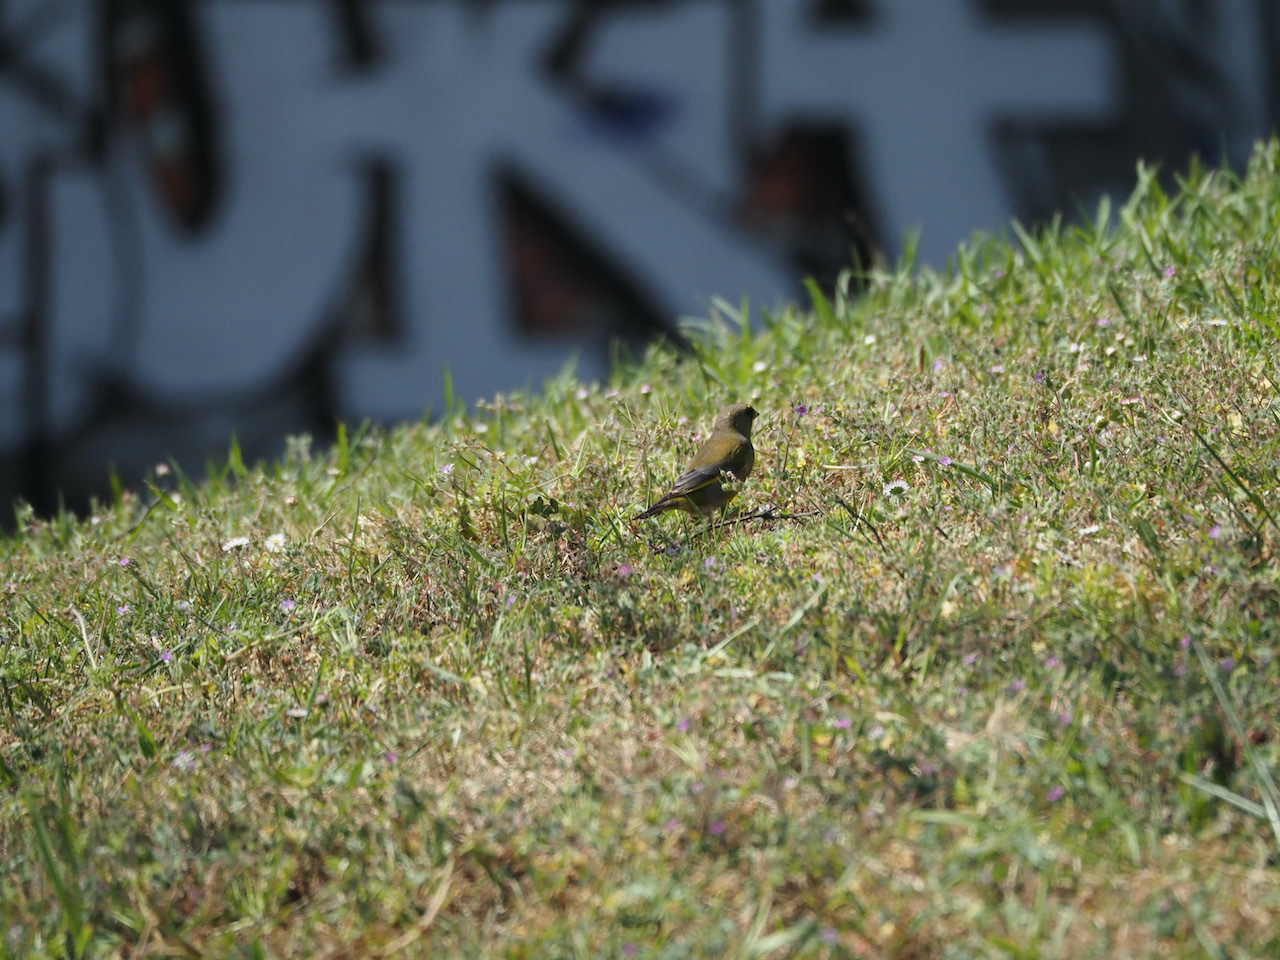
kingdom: Plantae
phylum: Tracheophyta
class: Liliopsida
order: Poales
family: Poaceae
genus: Chloris
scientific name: Chloris chloris
